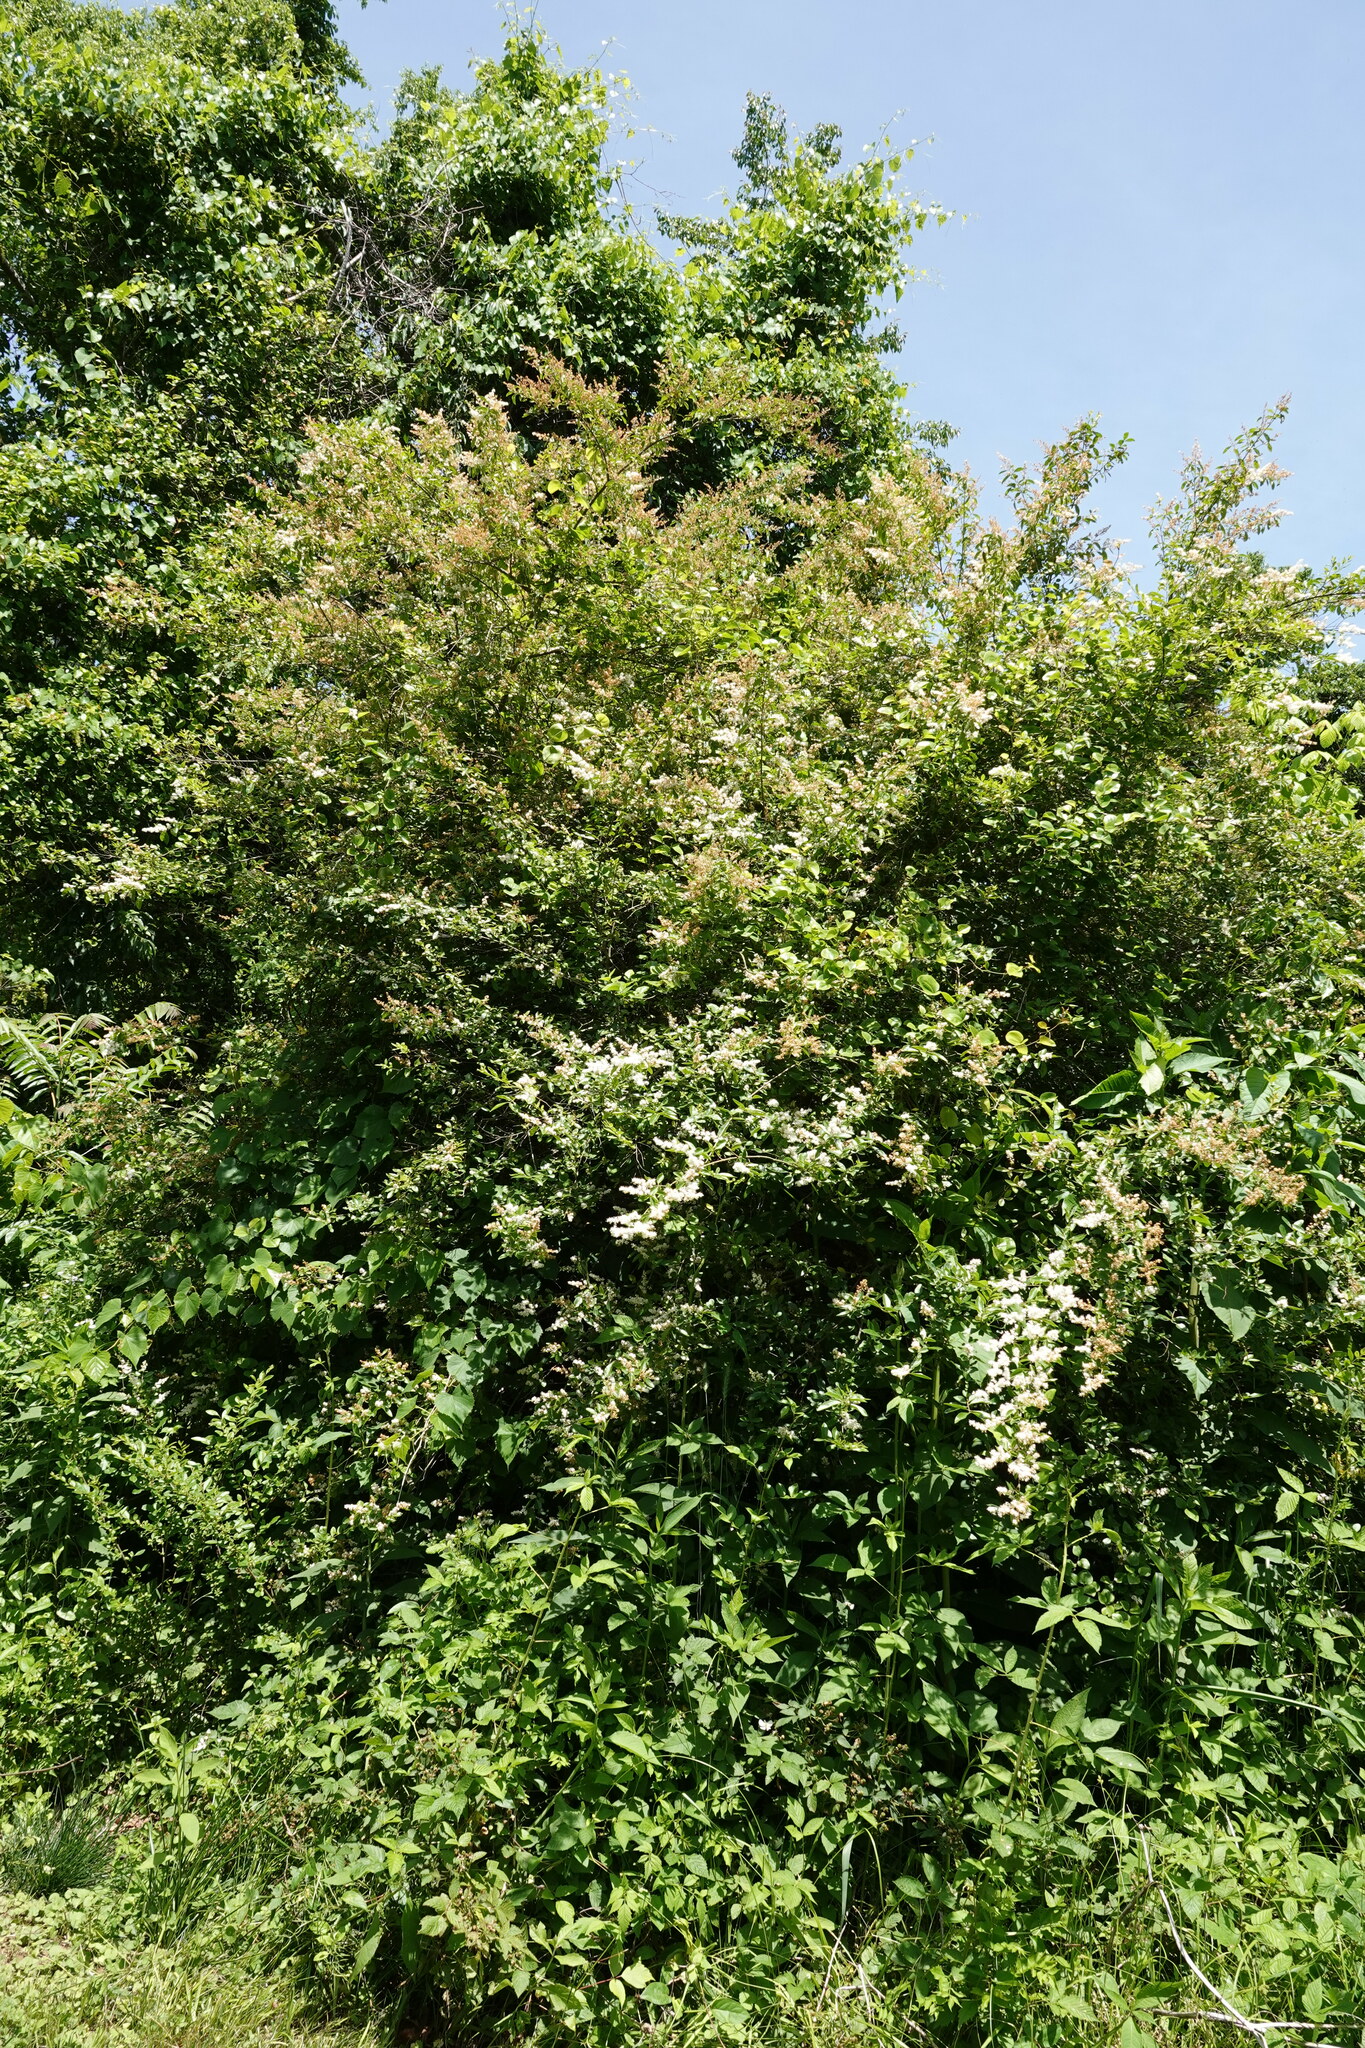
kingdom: Plantae
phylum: Tracheophyta
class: Magnoliopsida
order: Lamiales
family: Oleaceae
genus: Ligustrum
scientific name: Ligustrum sinense
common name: Chinese privet
